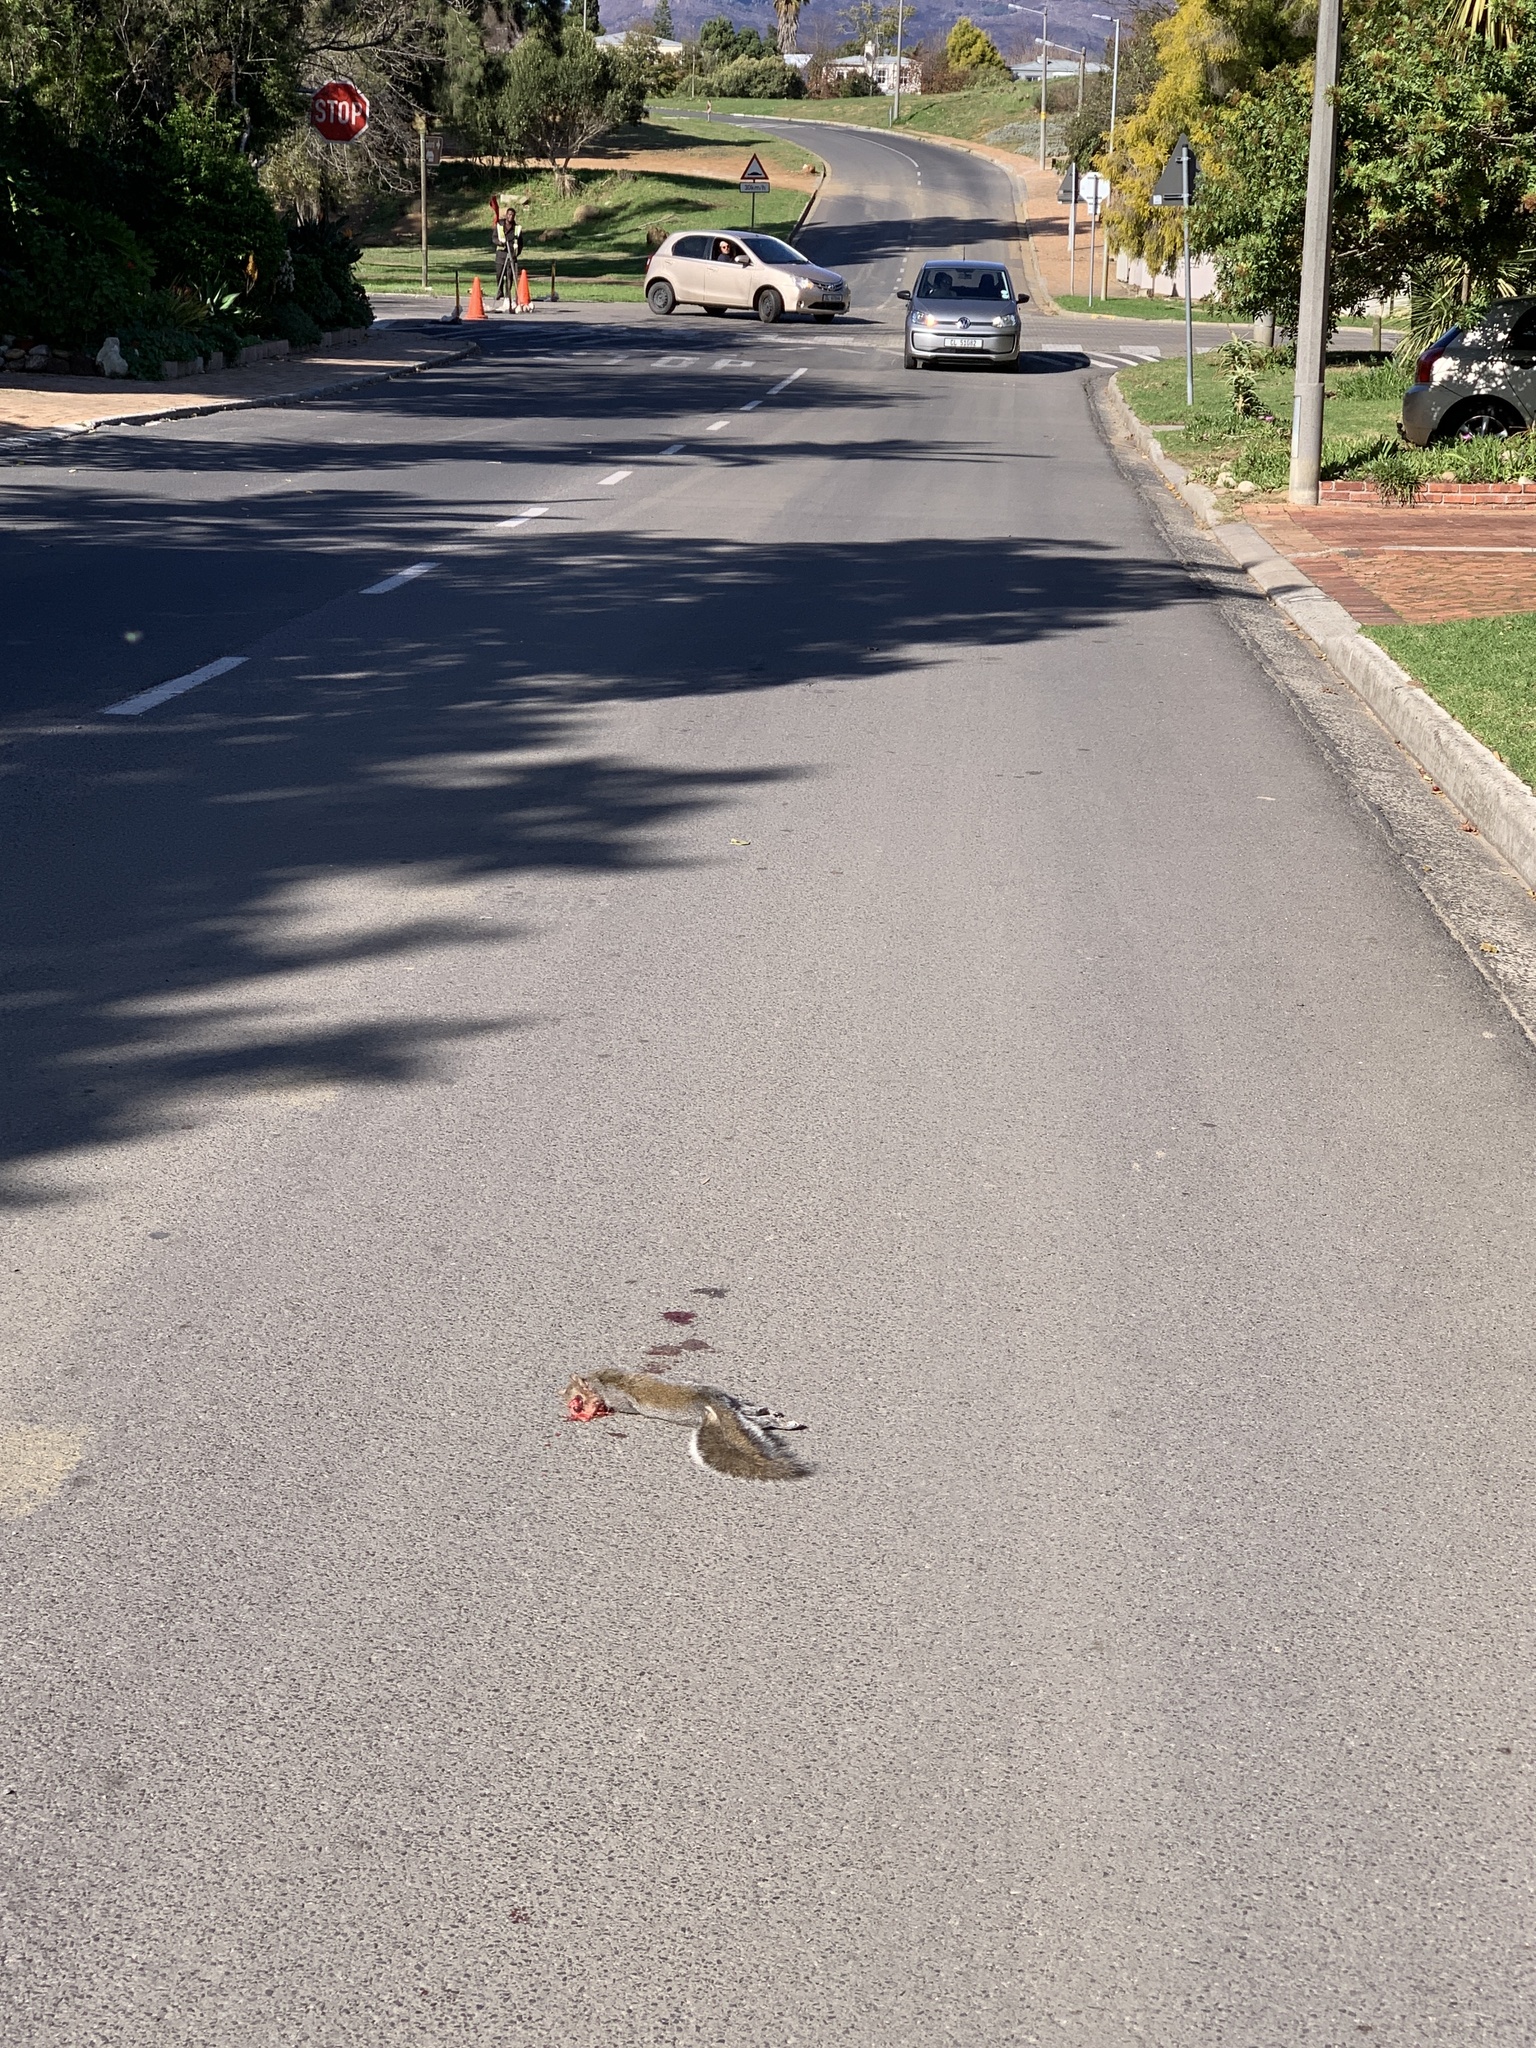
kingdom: Animalia
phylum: Chordata
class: Mammalia
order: Rodentia
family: Sciuridae
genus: Sciurus
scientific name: Sciurus carolinensis
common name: Eastern gray squirrel
